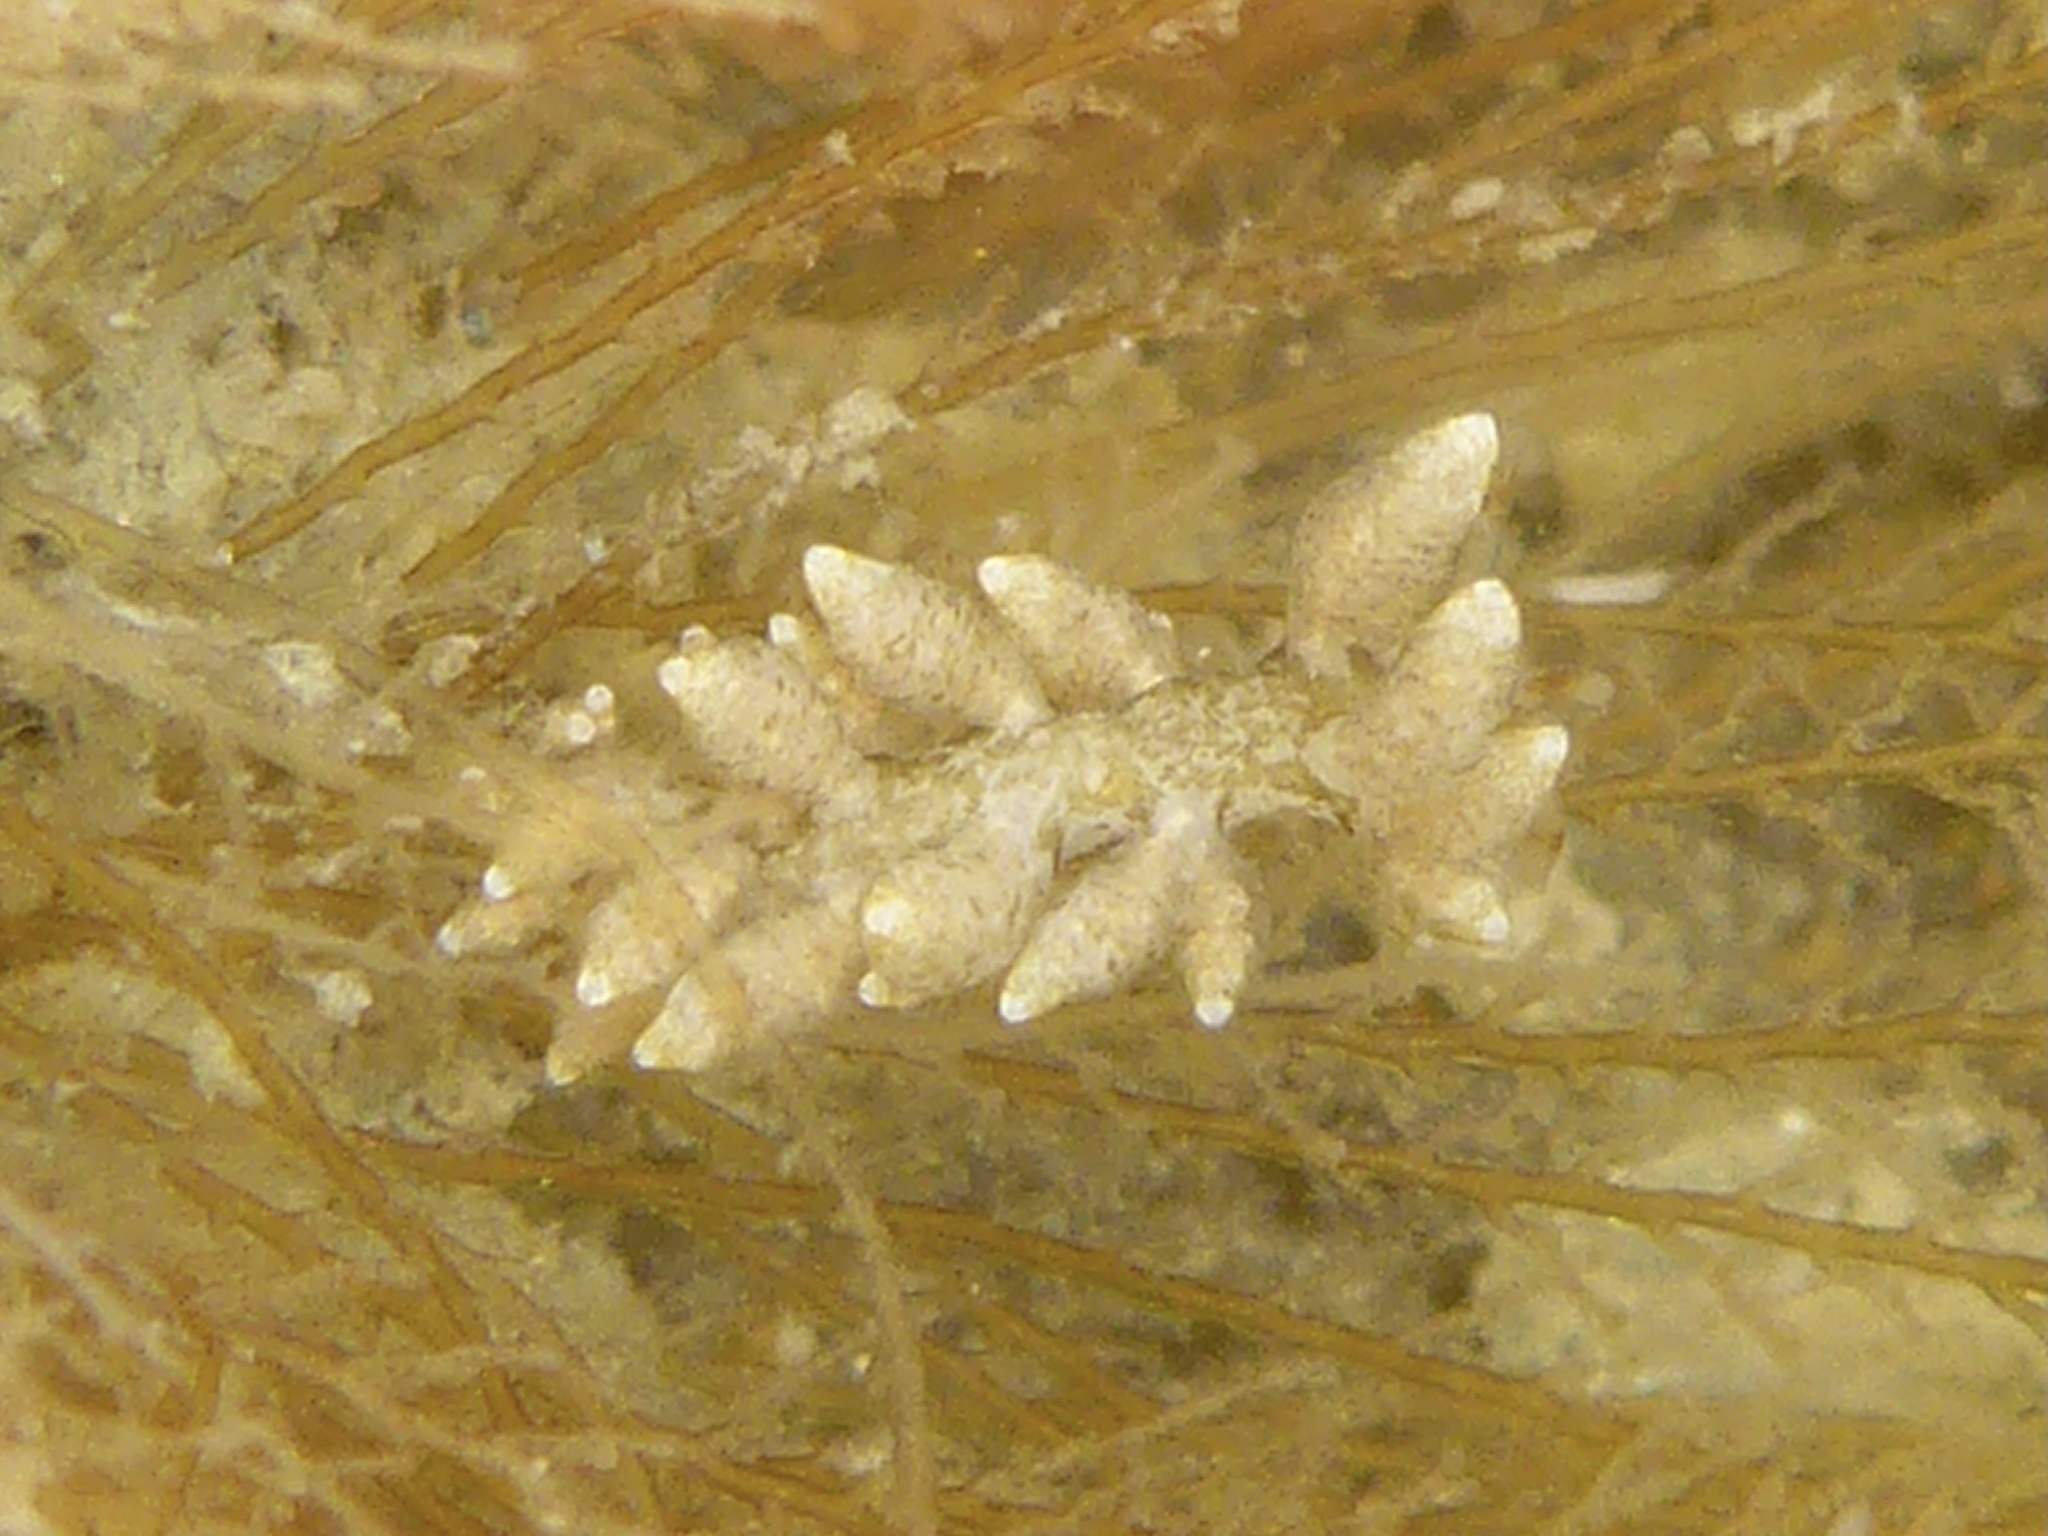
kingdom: Animalia
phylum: Mollusca
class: Gastropoda
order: Nudibranchia
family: Eubranchidae
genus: Eubranchus
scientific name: Eubranchus rustyus
